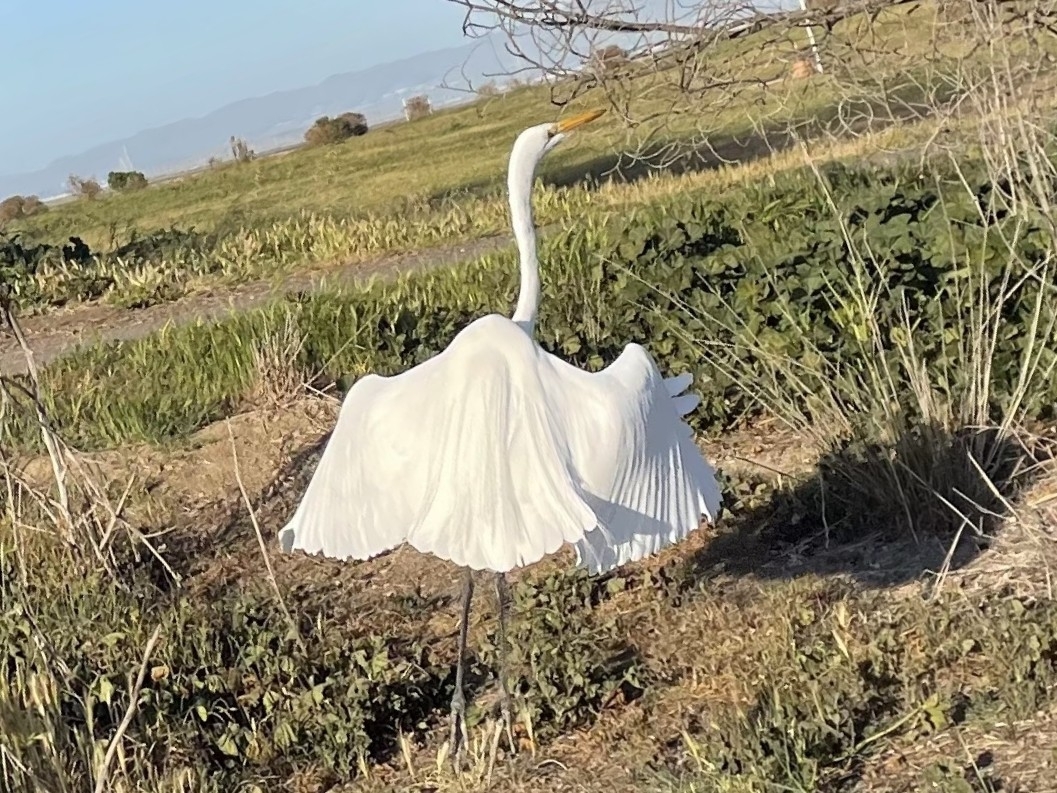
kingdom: Animalia
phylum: Chordata
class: Aves
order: Pelecaniformes
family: Ardeidae
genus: Ardea
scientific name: Ardea alba
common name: Great egret
